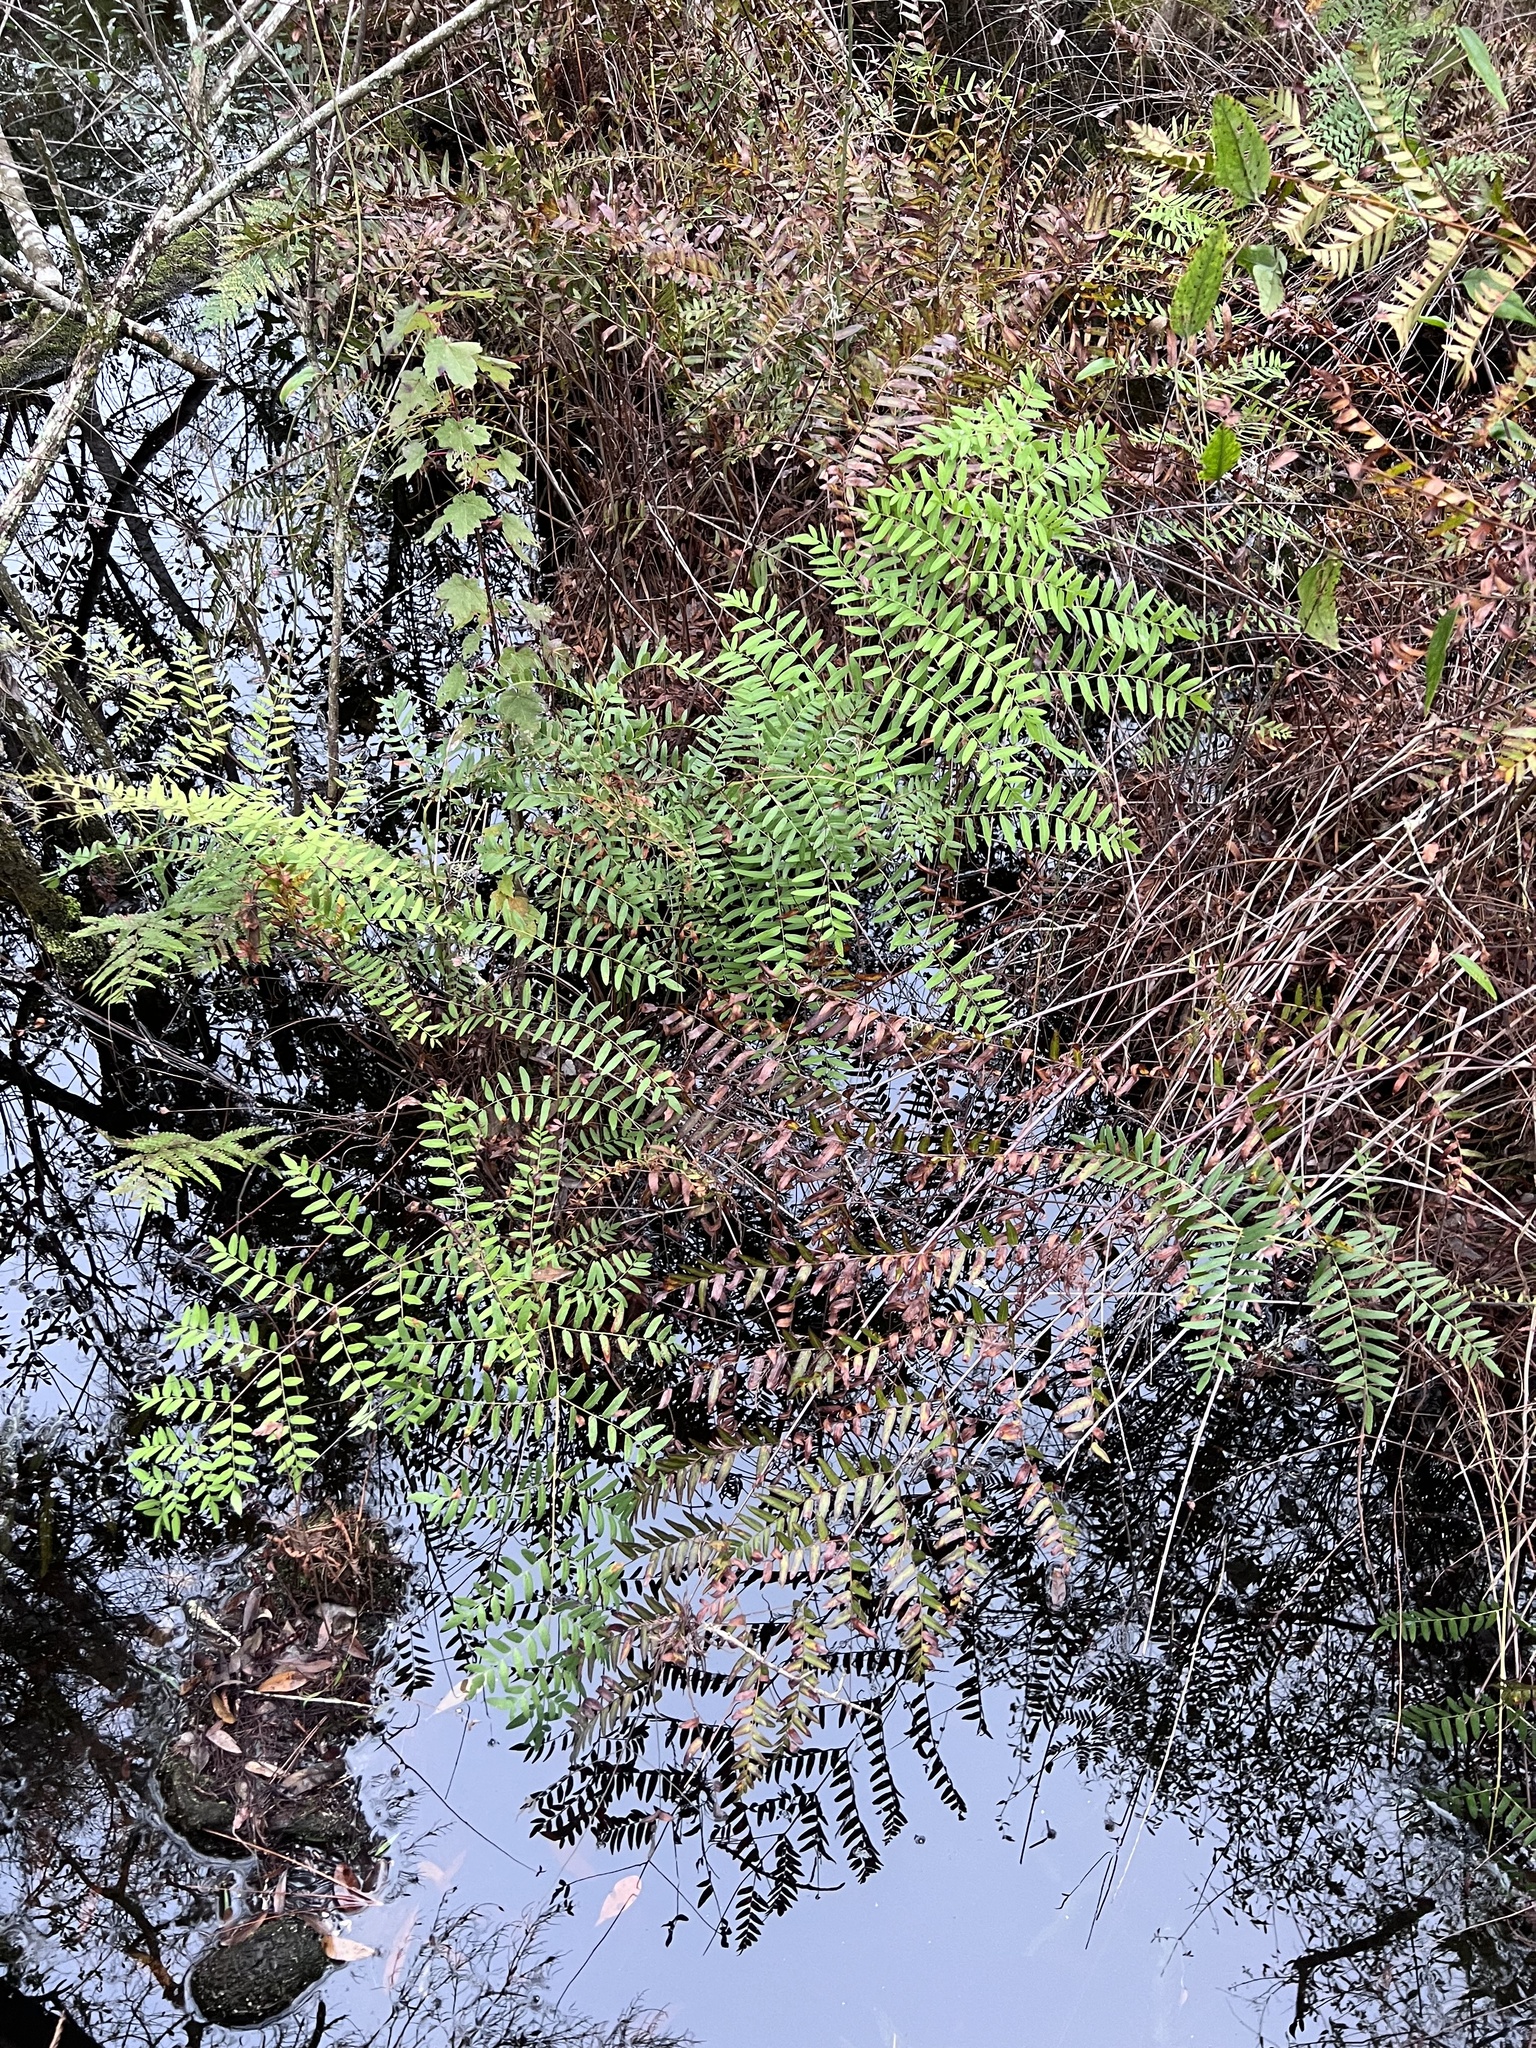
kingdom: Plantae
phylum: Tracheophyta
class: Polypodiopsida
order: Osmundales
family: Osmundaceae
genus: Osmunda
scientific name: Osmunda spectabilis
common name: American royal fern
